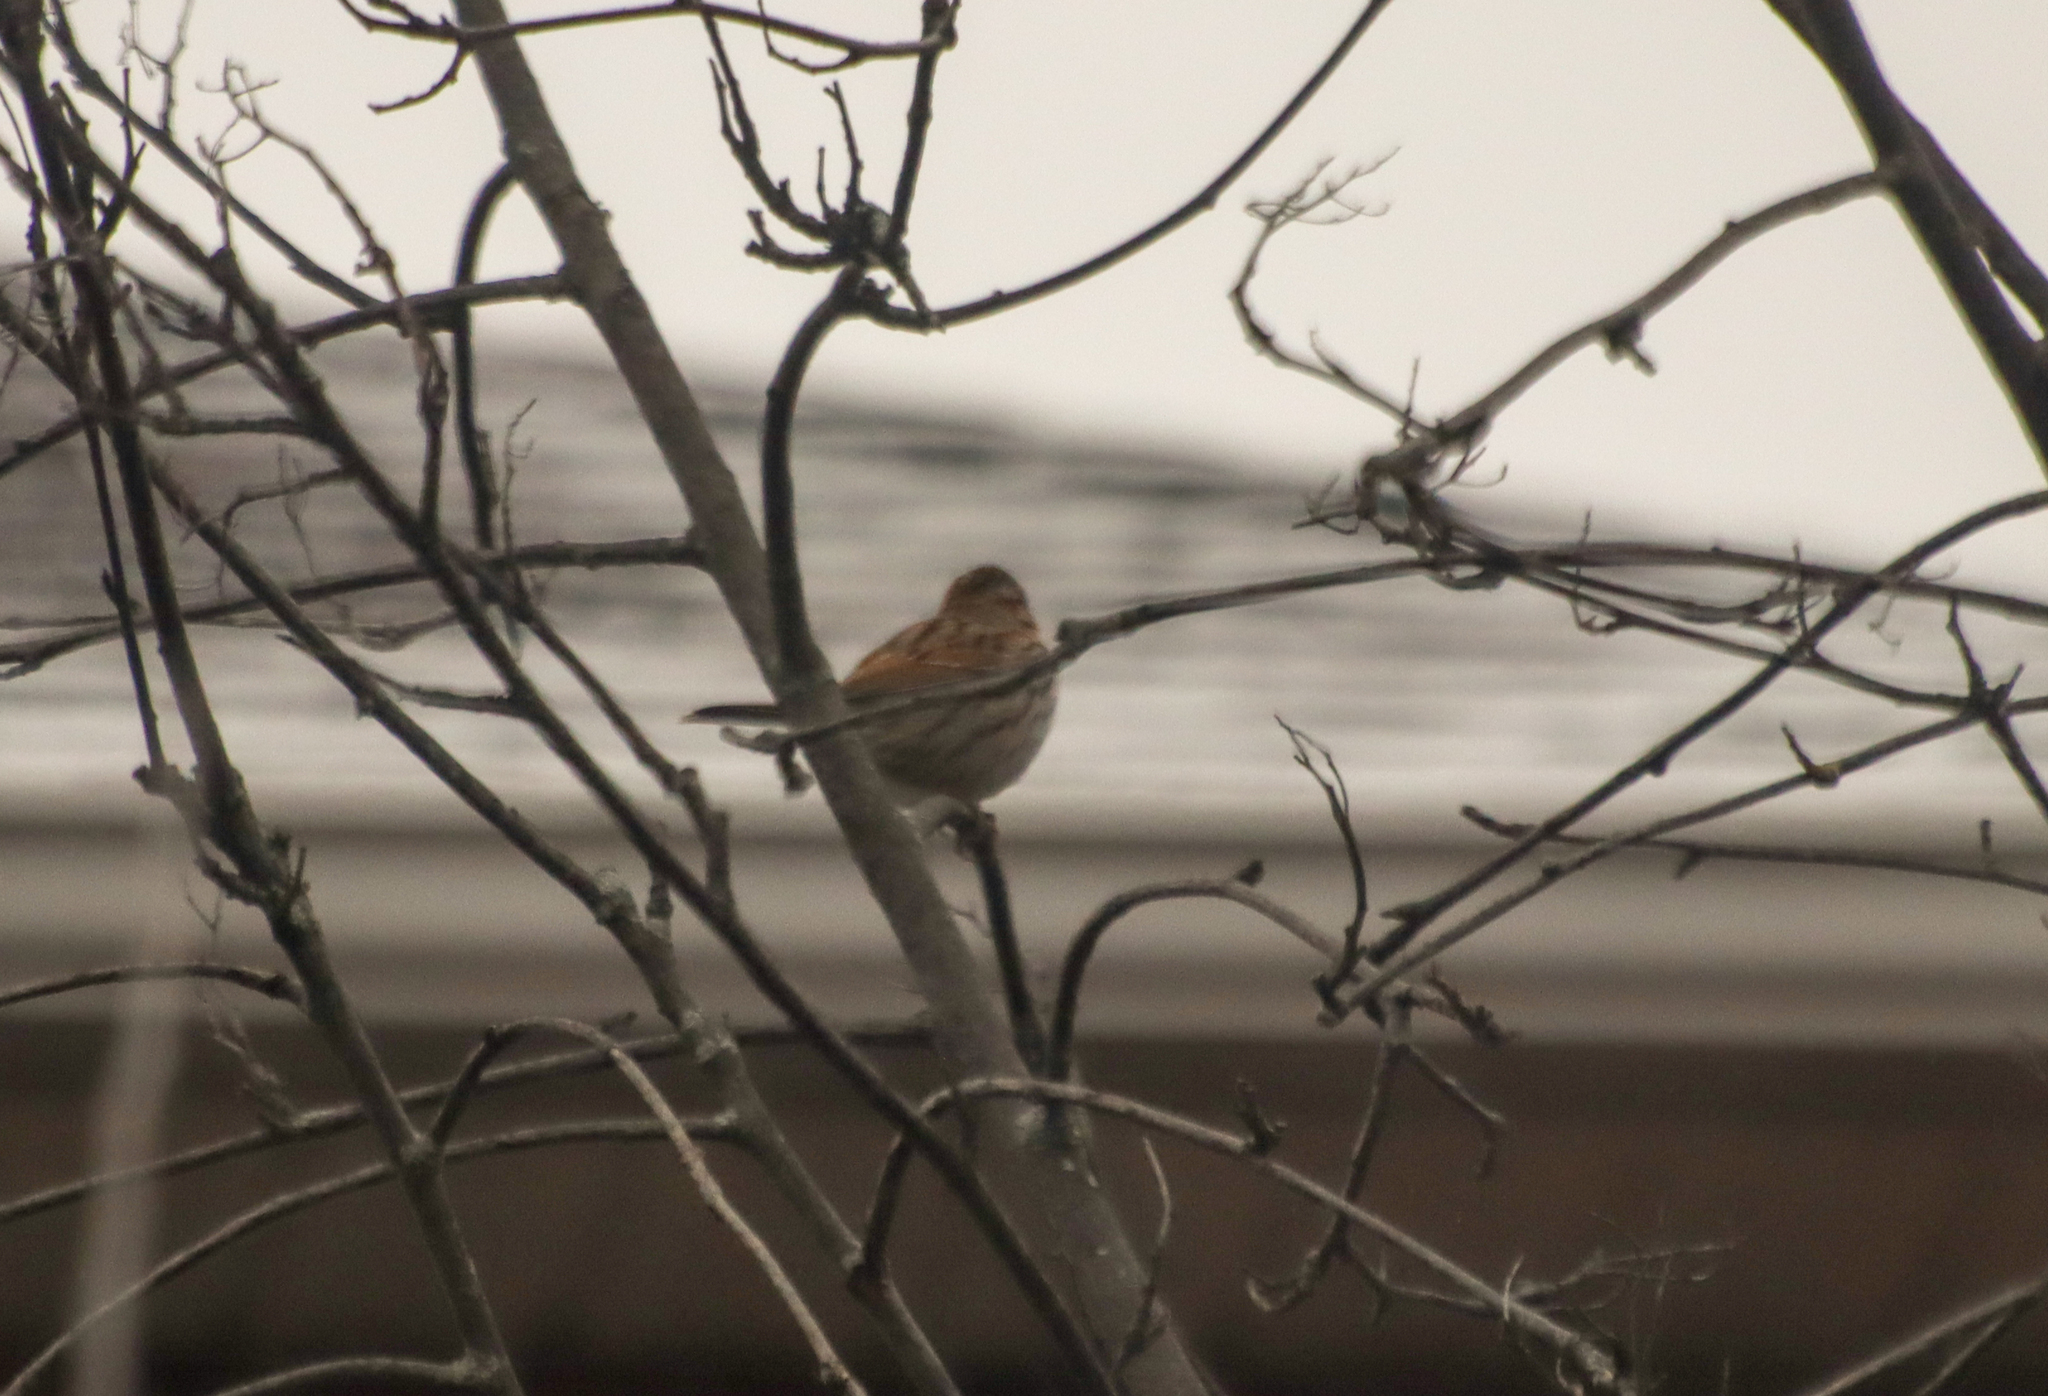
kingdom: Animalia
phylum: Chordata
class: Aves
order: Passeriformes
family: Passeridae
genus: Passer
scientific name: Passer domesticus
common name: House sparrow
